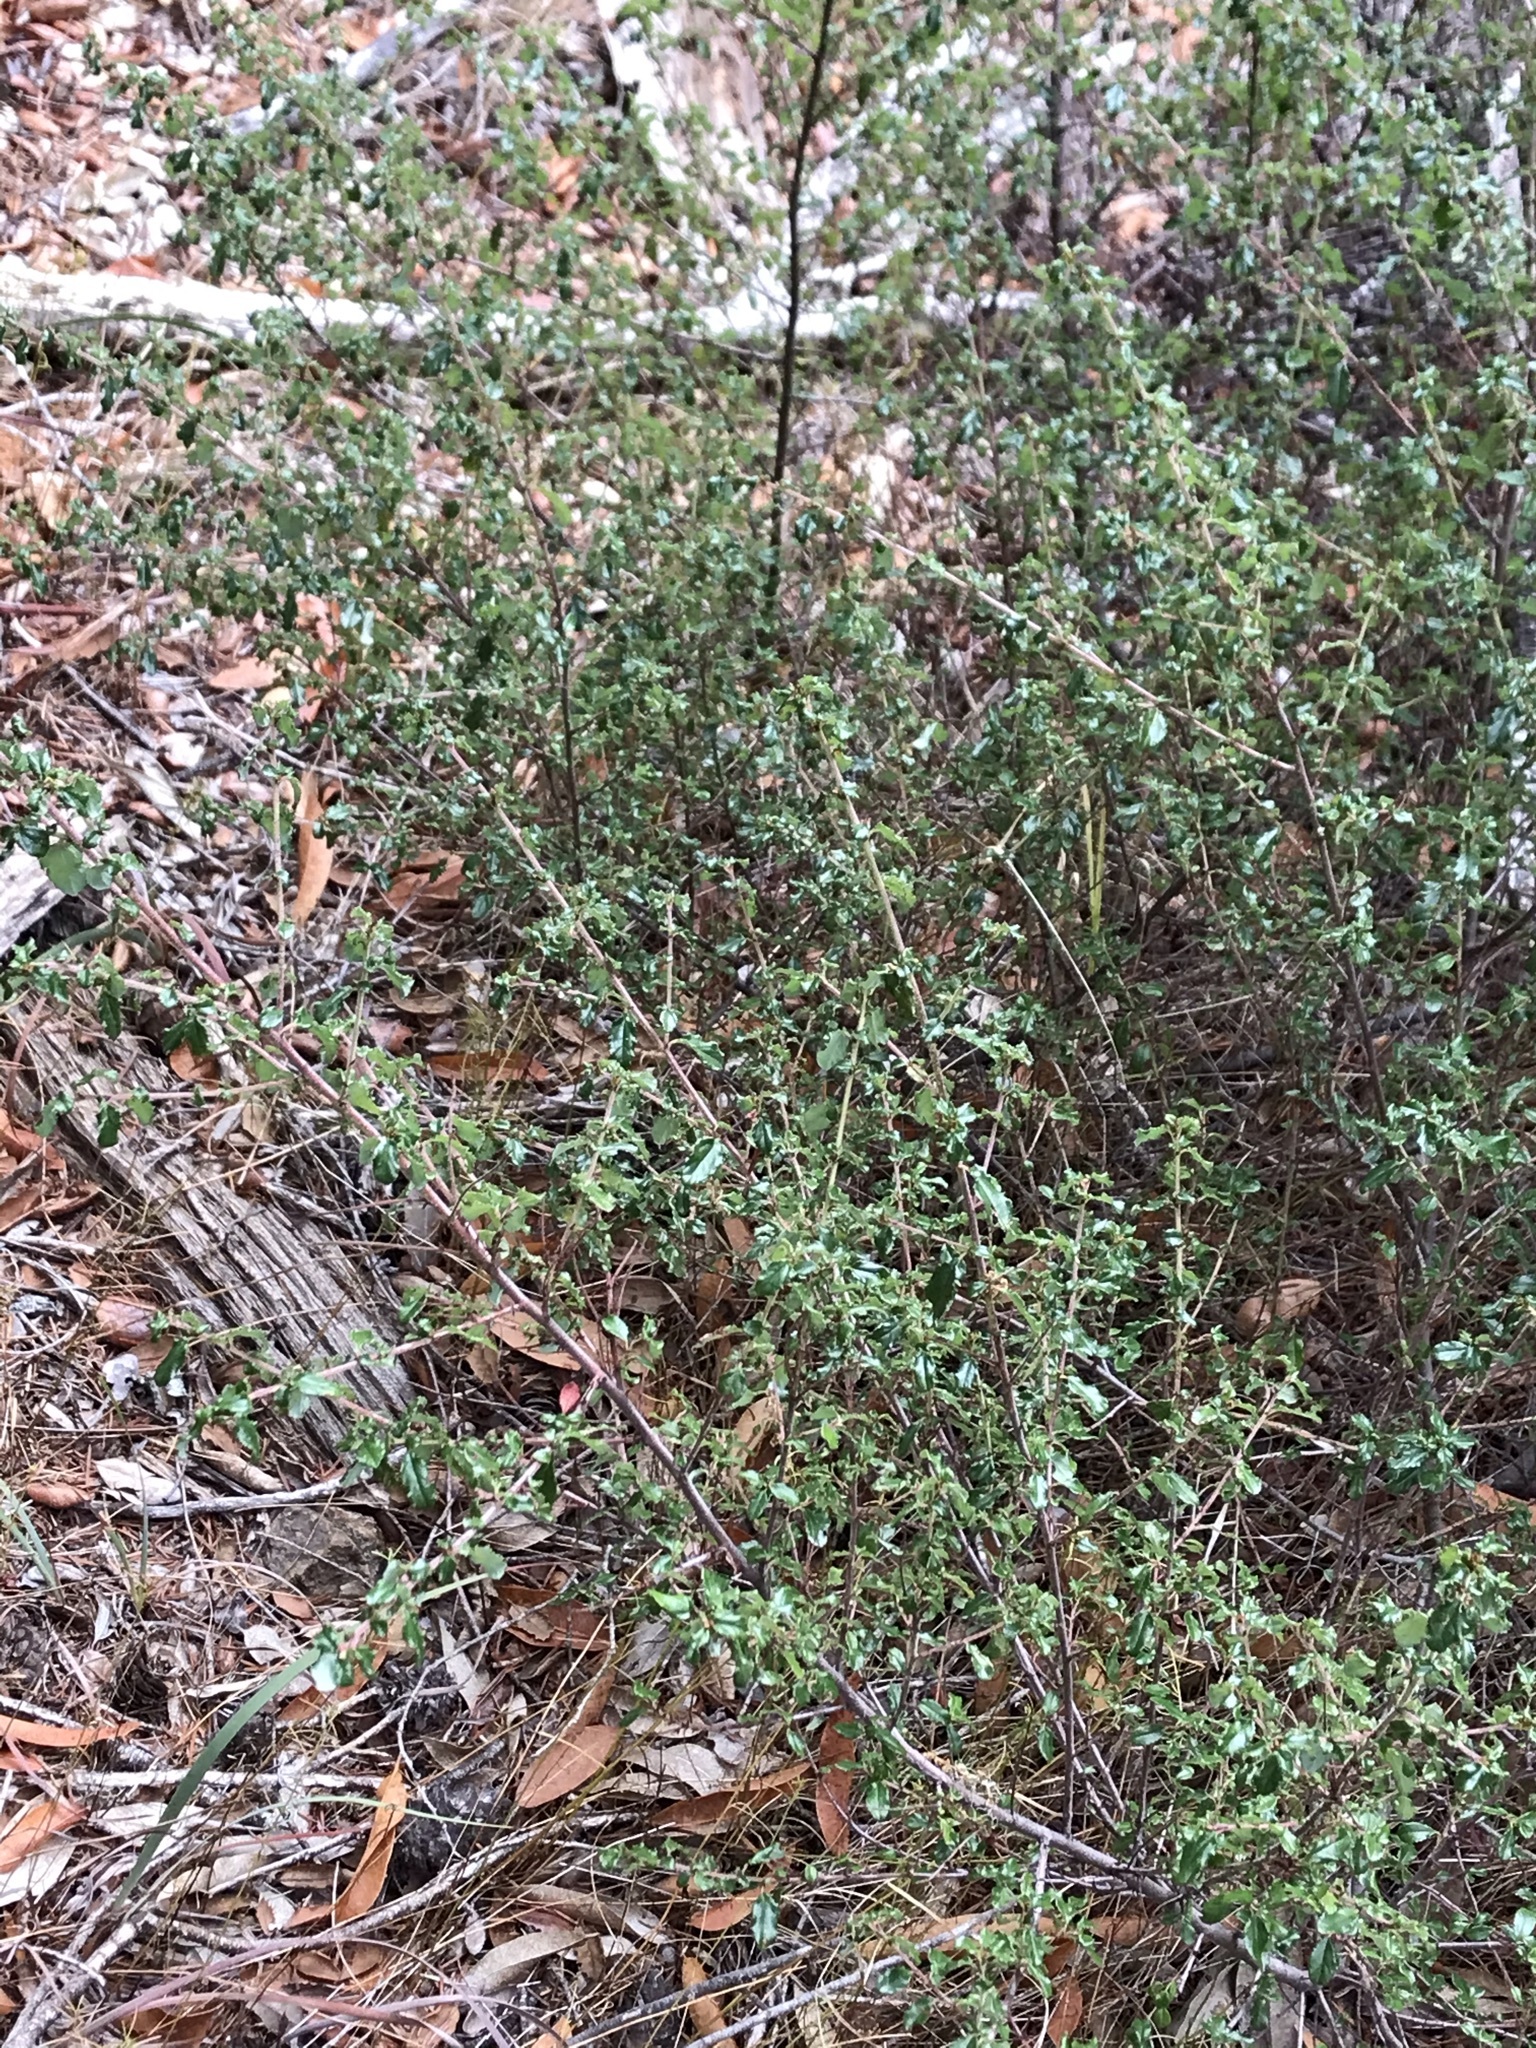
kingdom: Plantae
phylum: Tracheophyta
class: Magnoliopsida
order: Rosales
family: Rhamnaceae
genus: Ceanothus
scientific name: Ceanothus foliosus
